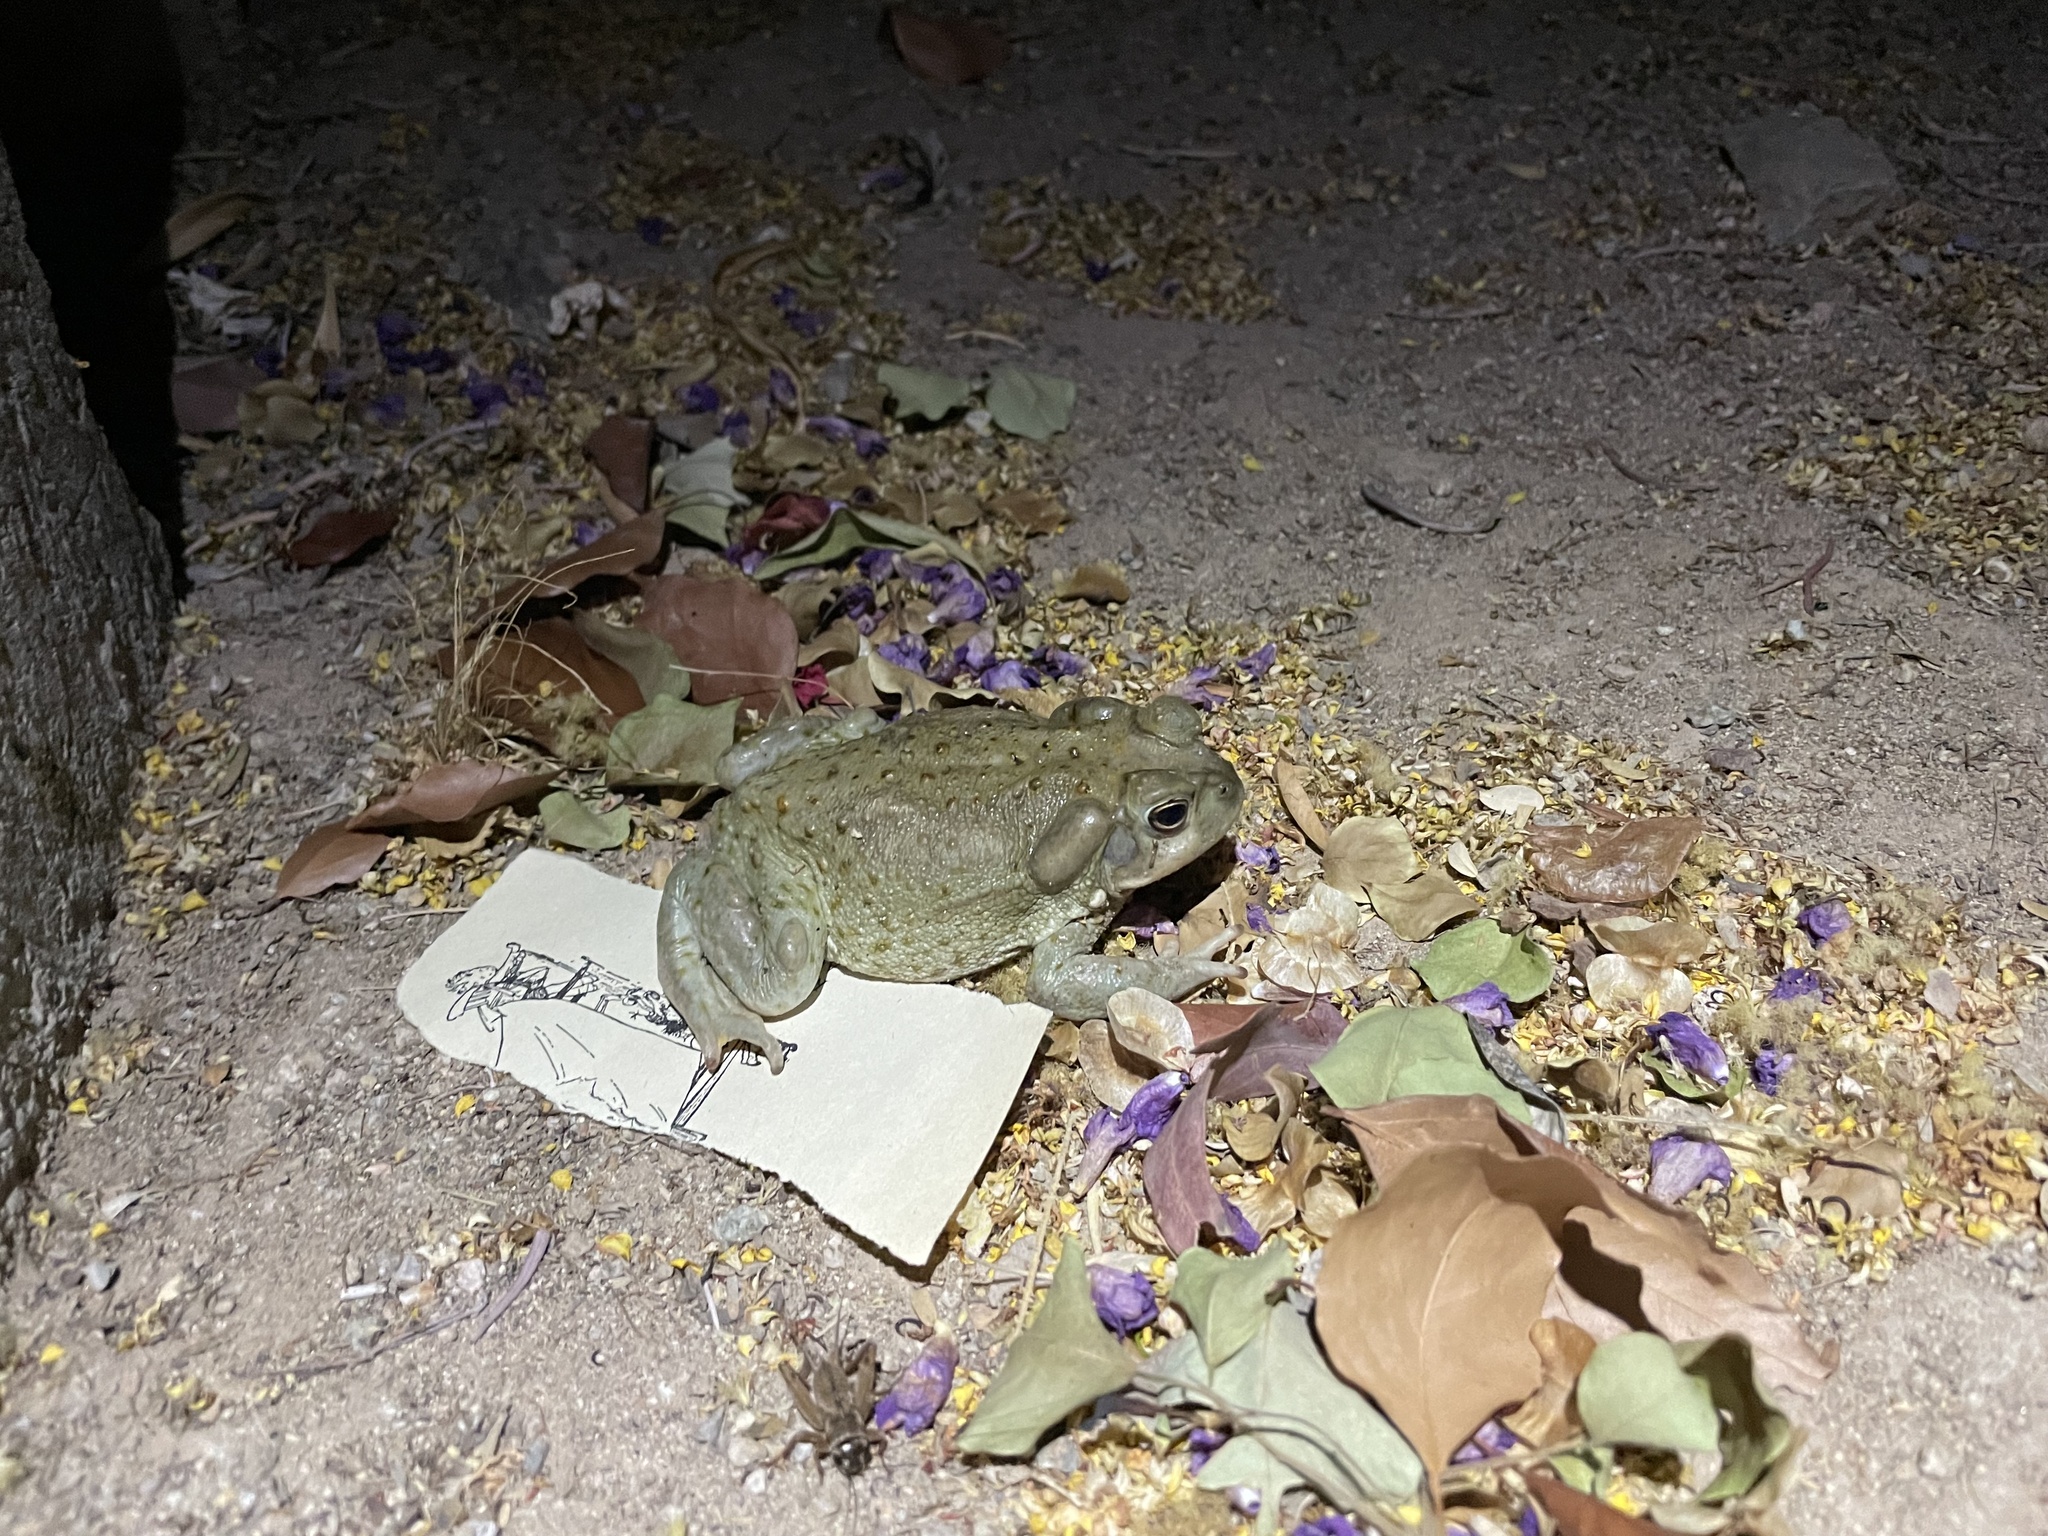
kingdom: Animalia
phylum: Chordata
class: Amphibia
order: Anura
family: Bufonidae
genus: Incilius
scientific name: Incilius alvarius
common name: Sonoran desert toad
